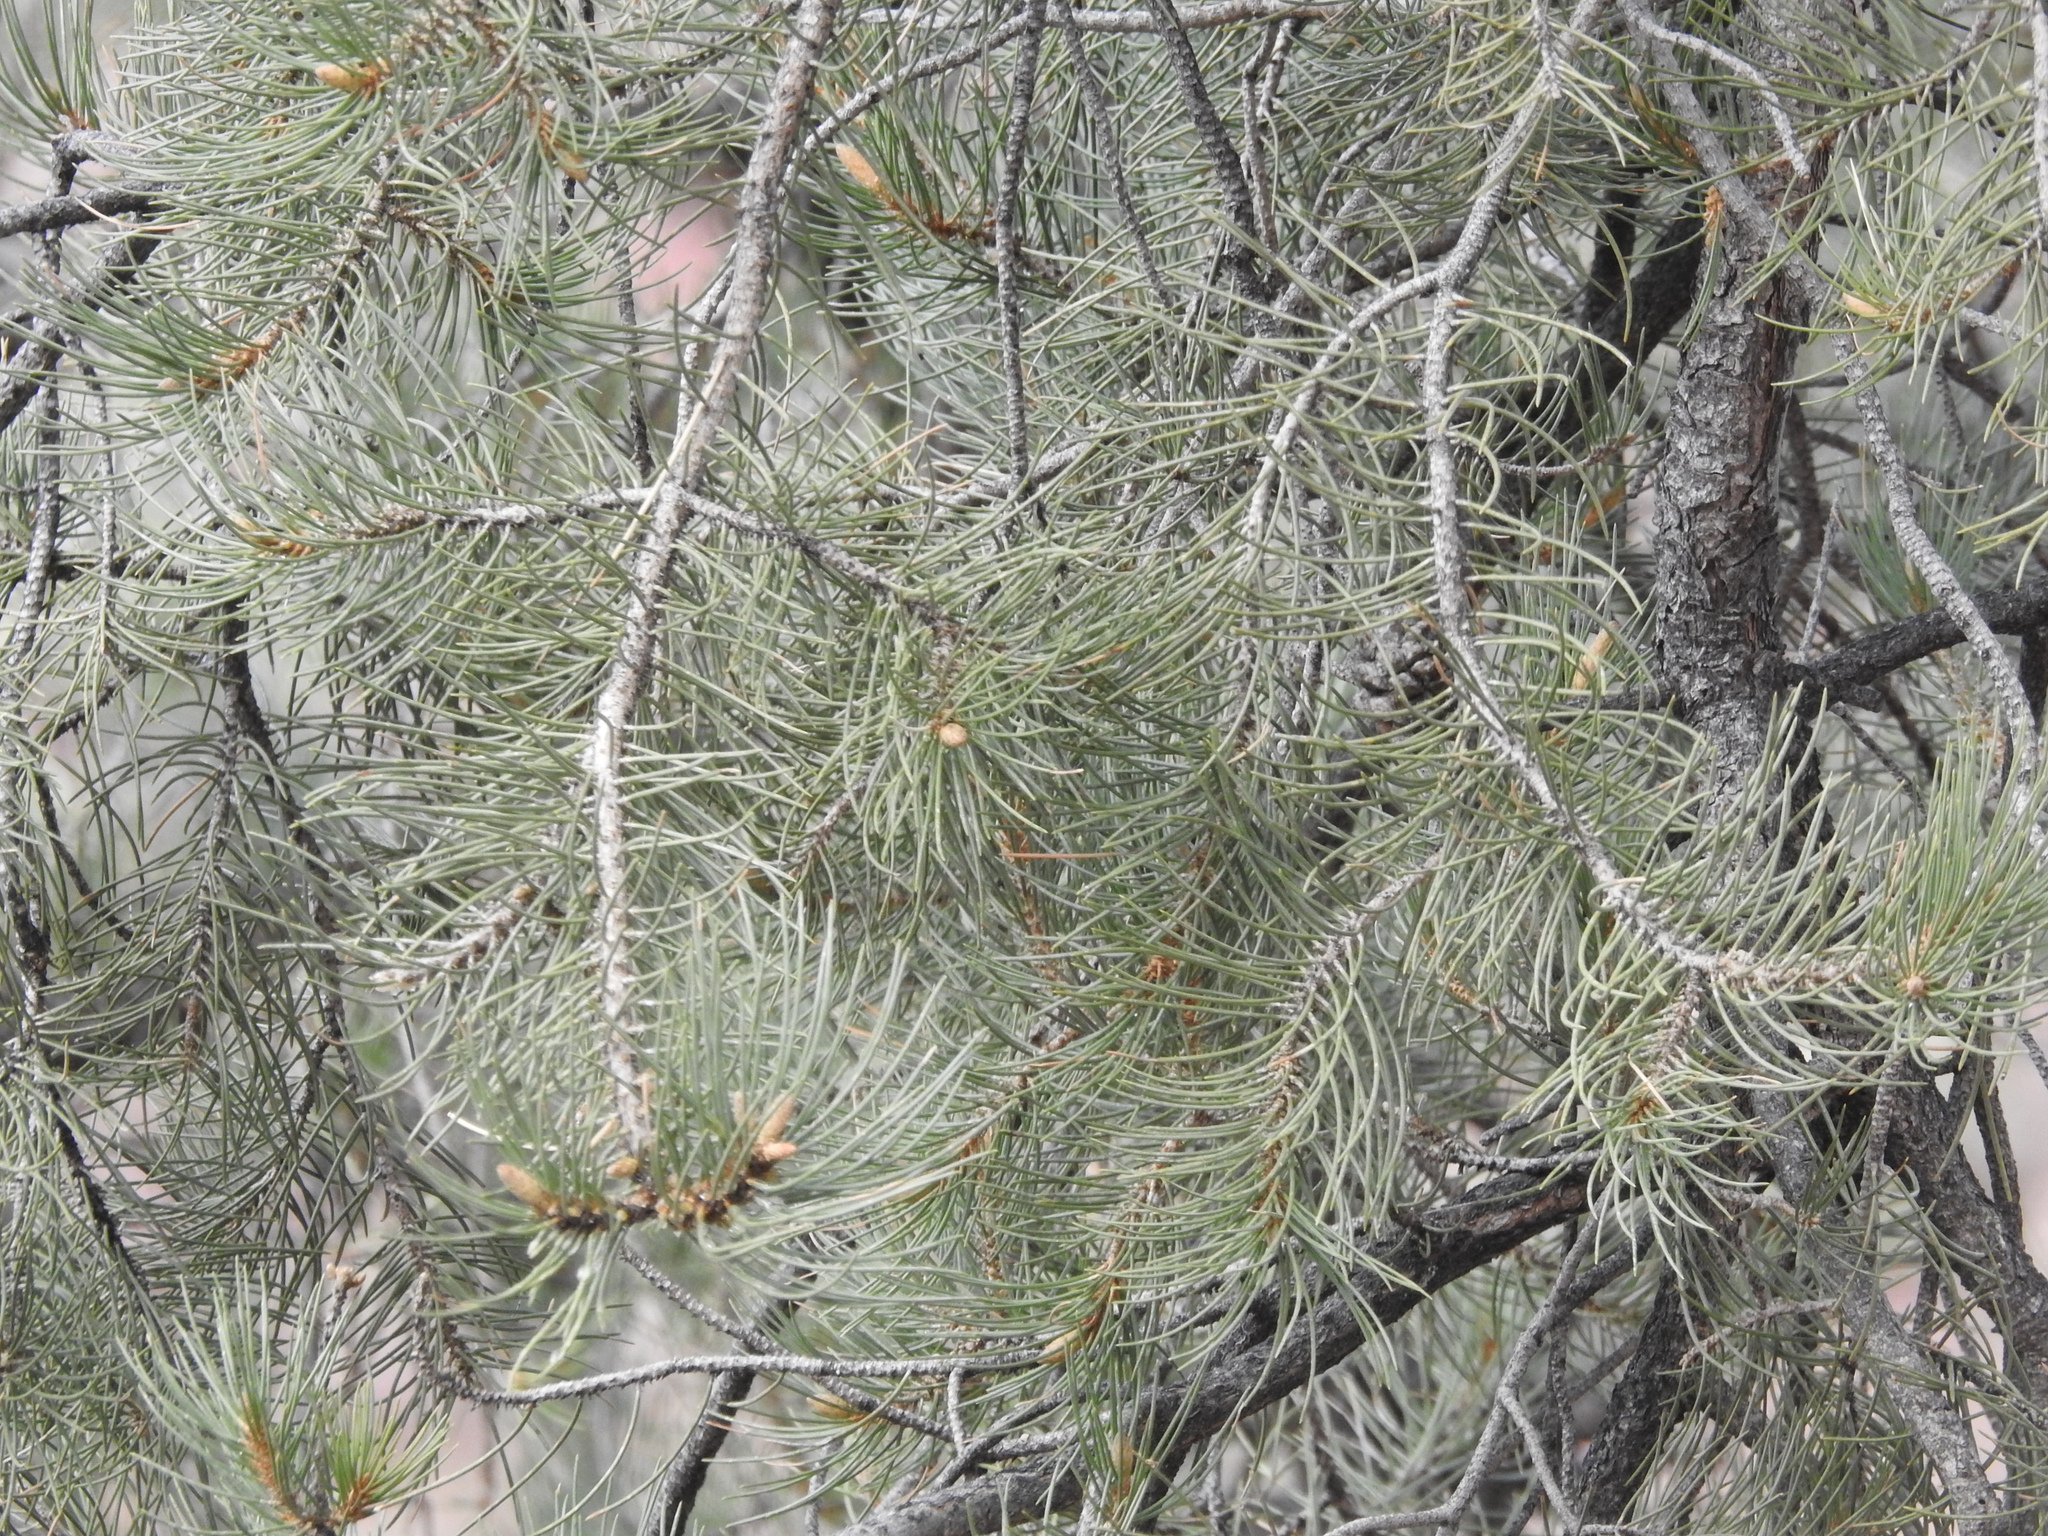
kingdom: Plantae
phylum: Tracheophyta
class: Pinopsida
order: Pinales
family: Pinaceae
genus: Pinus
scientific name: Pinus monophylla
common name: One-leaved nut pine
